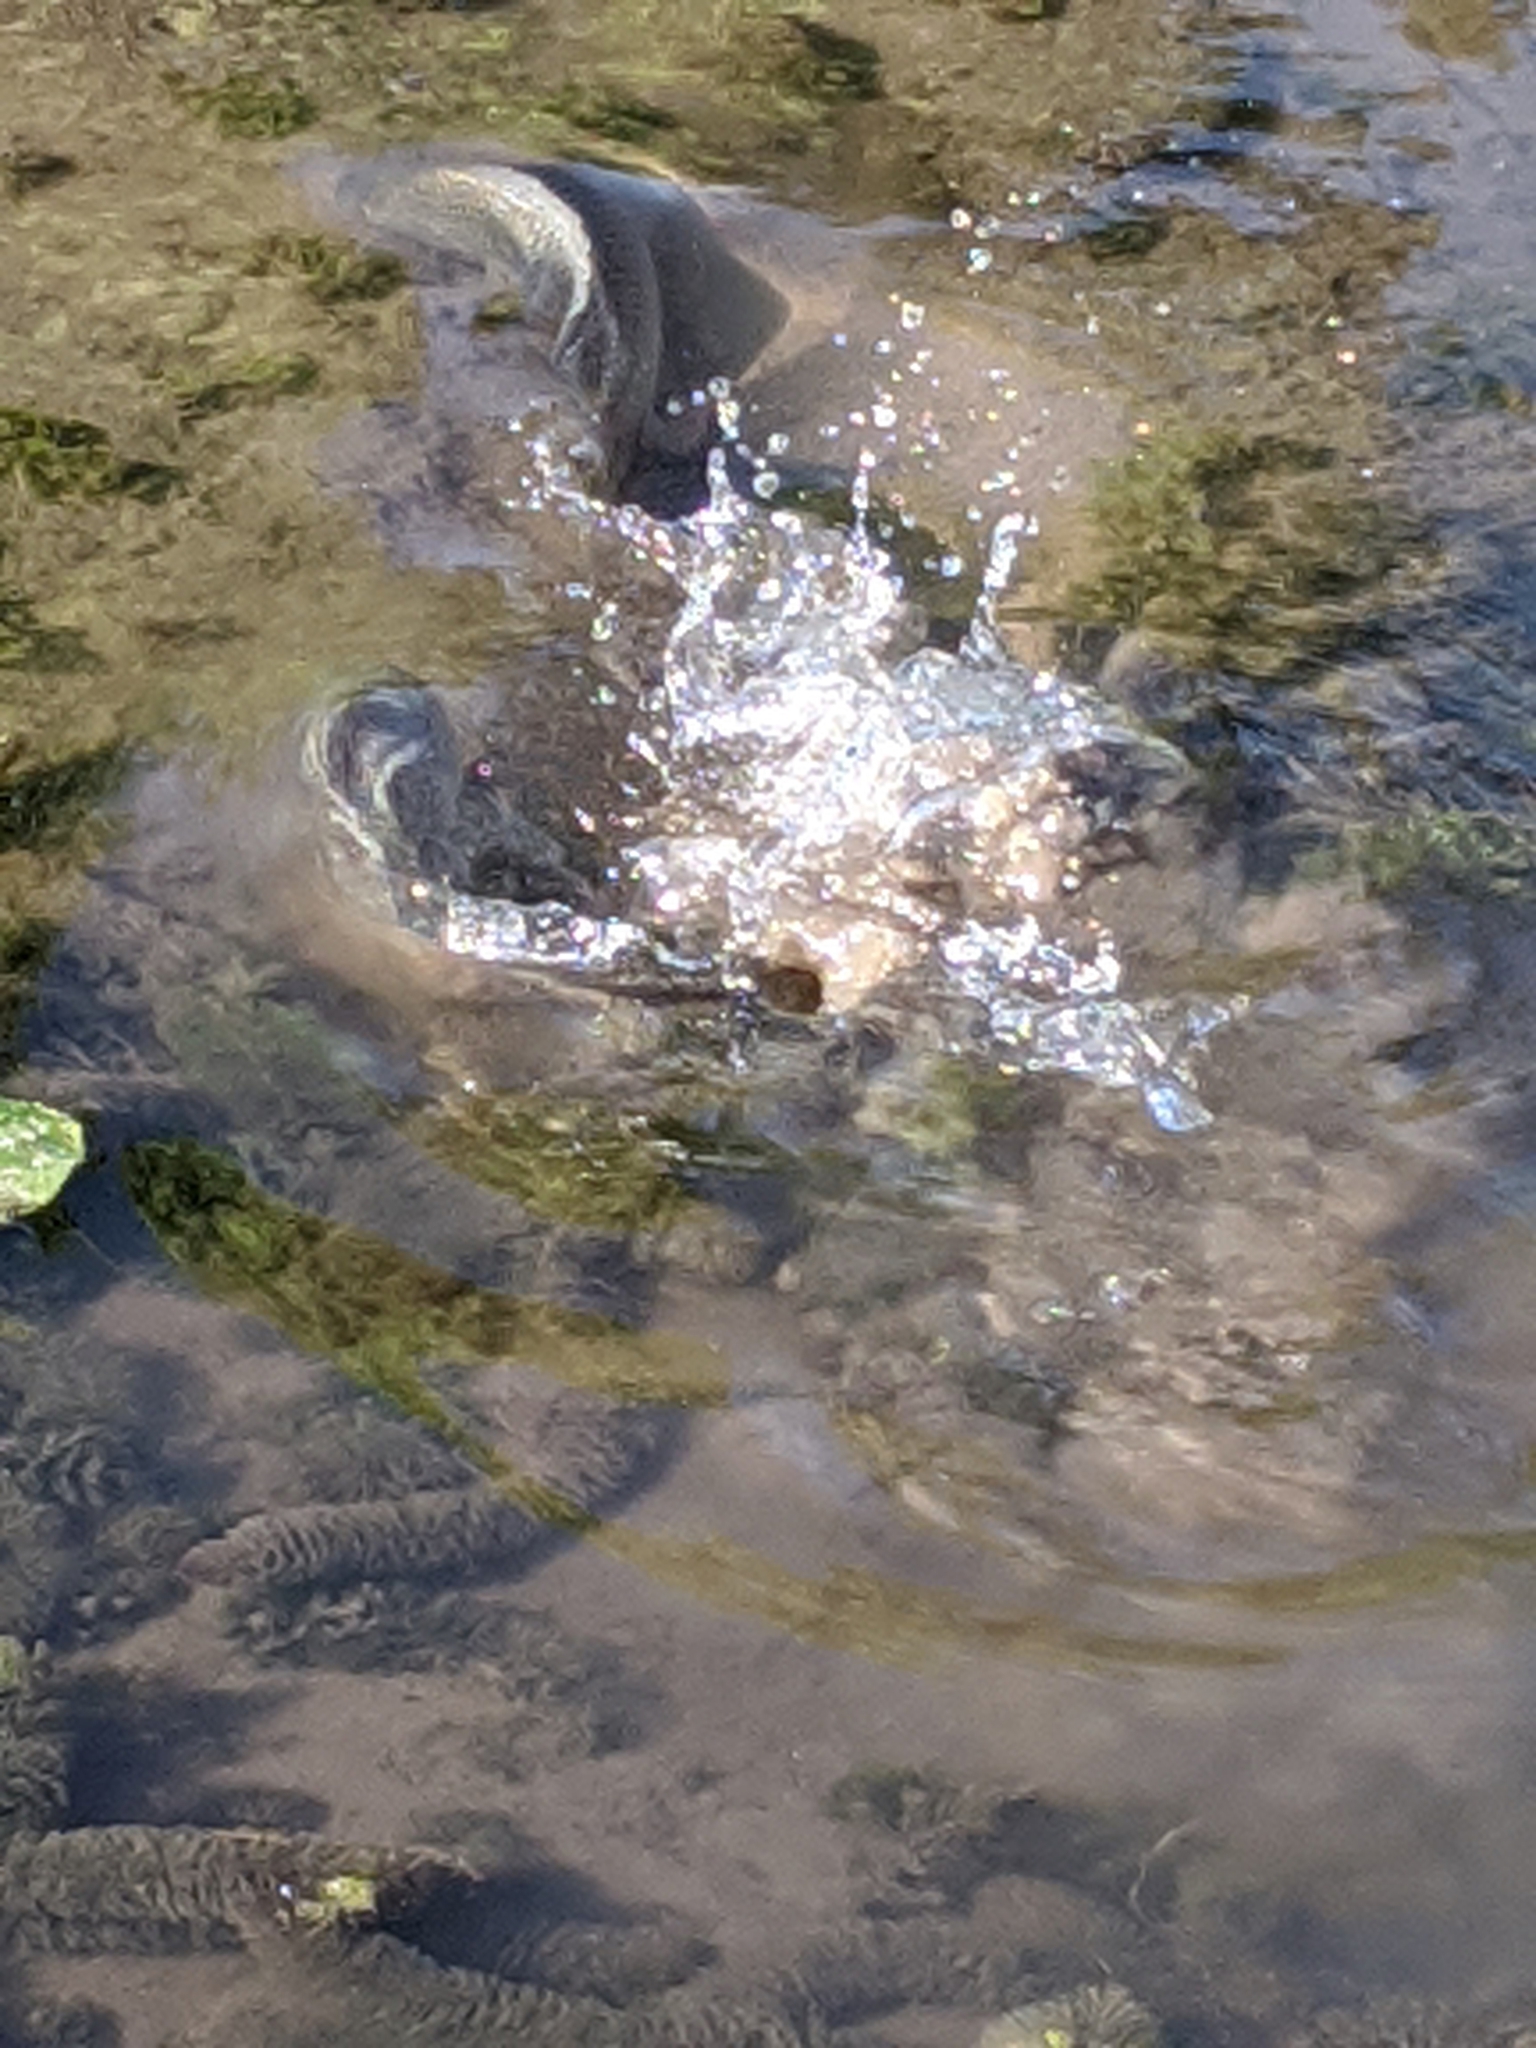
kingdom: Animalia
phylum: Chordata
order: Perciformes
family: Cichlidae
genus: Oreochromis
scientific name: Oreochromis aureus
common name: Blue tilapia
